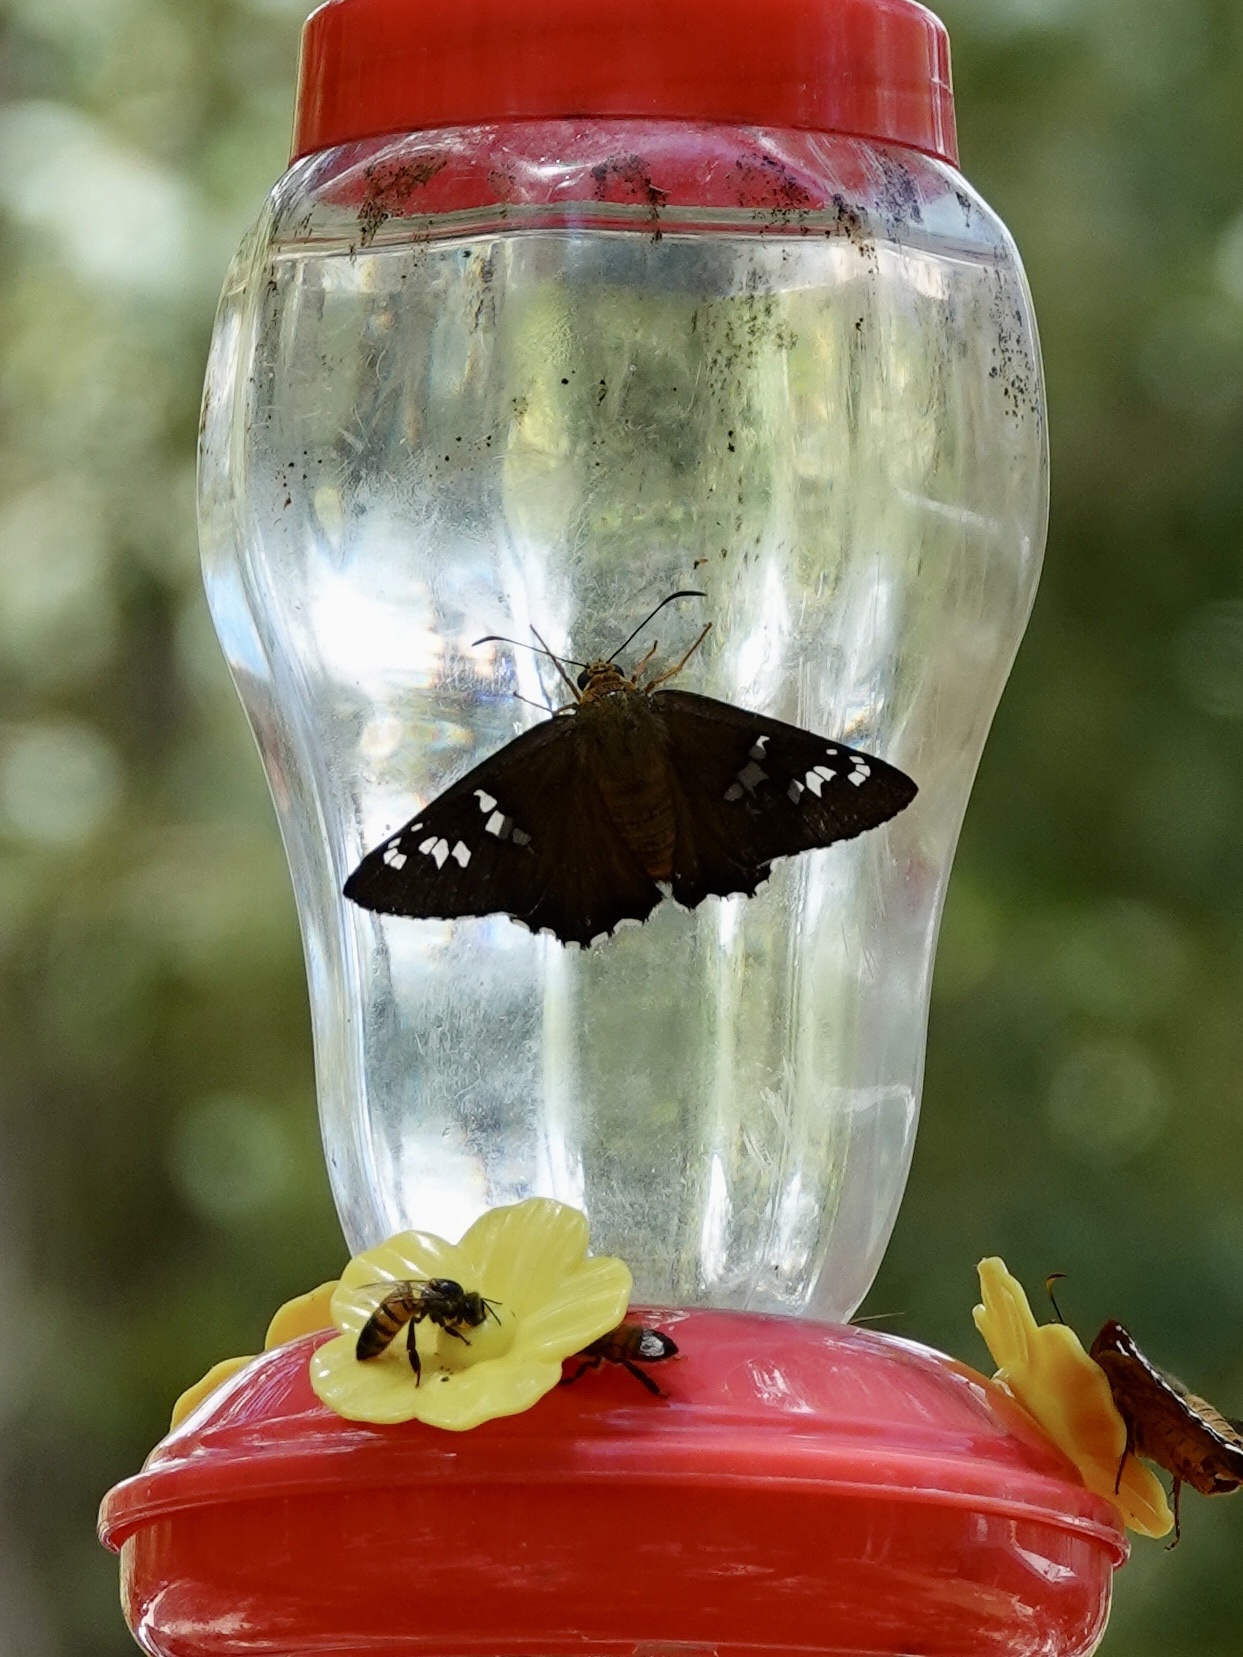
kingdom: Animalia
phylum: Arthropoda
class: Insecta
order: Lepidoptera
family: Hesperiidae
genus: Pyrrhopyge
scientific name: Pyrrhopyge araxes
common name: Dull firetip
